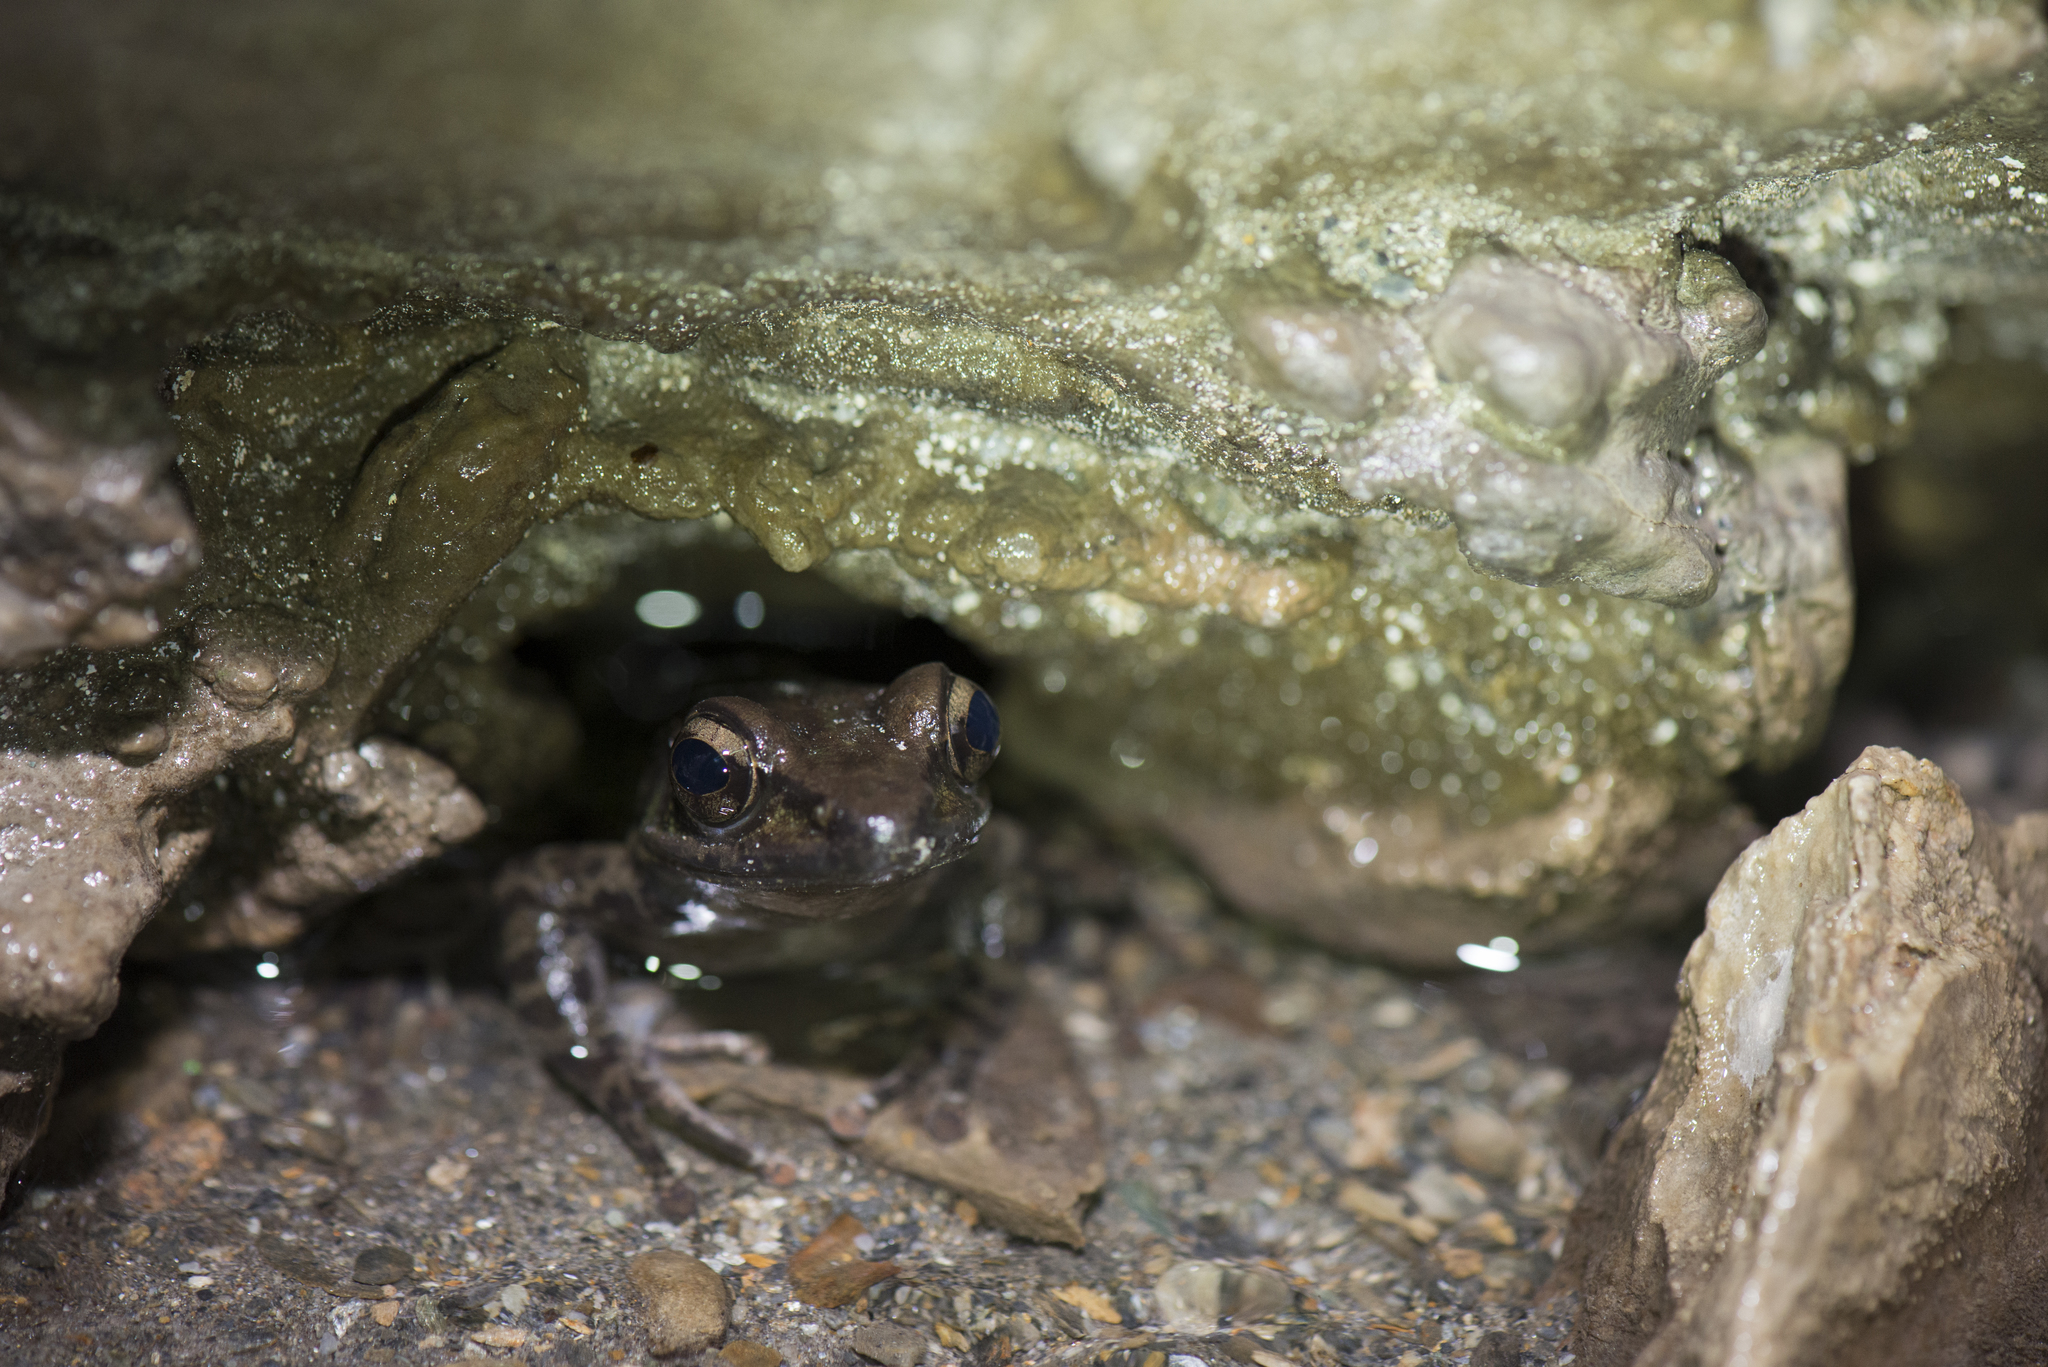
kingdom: Animalia
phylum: Chordata
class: Amphibia
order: Anura
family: Ranidae
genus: Odorrana
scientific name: Odorrana swinhoana
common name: Bangkimtsing frog
